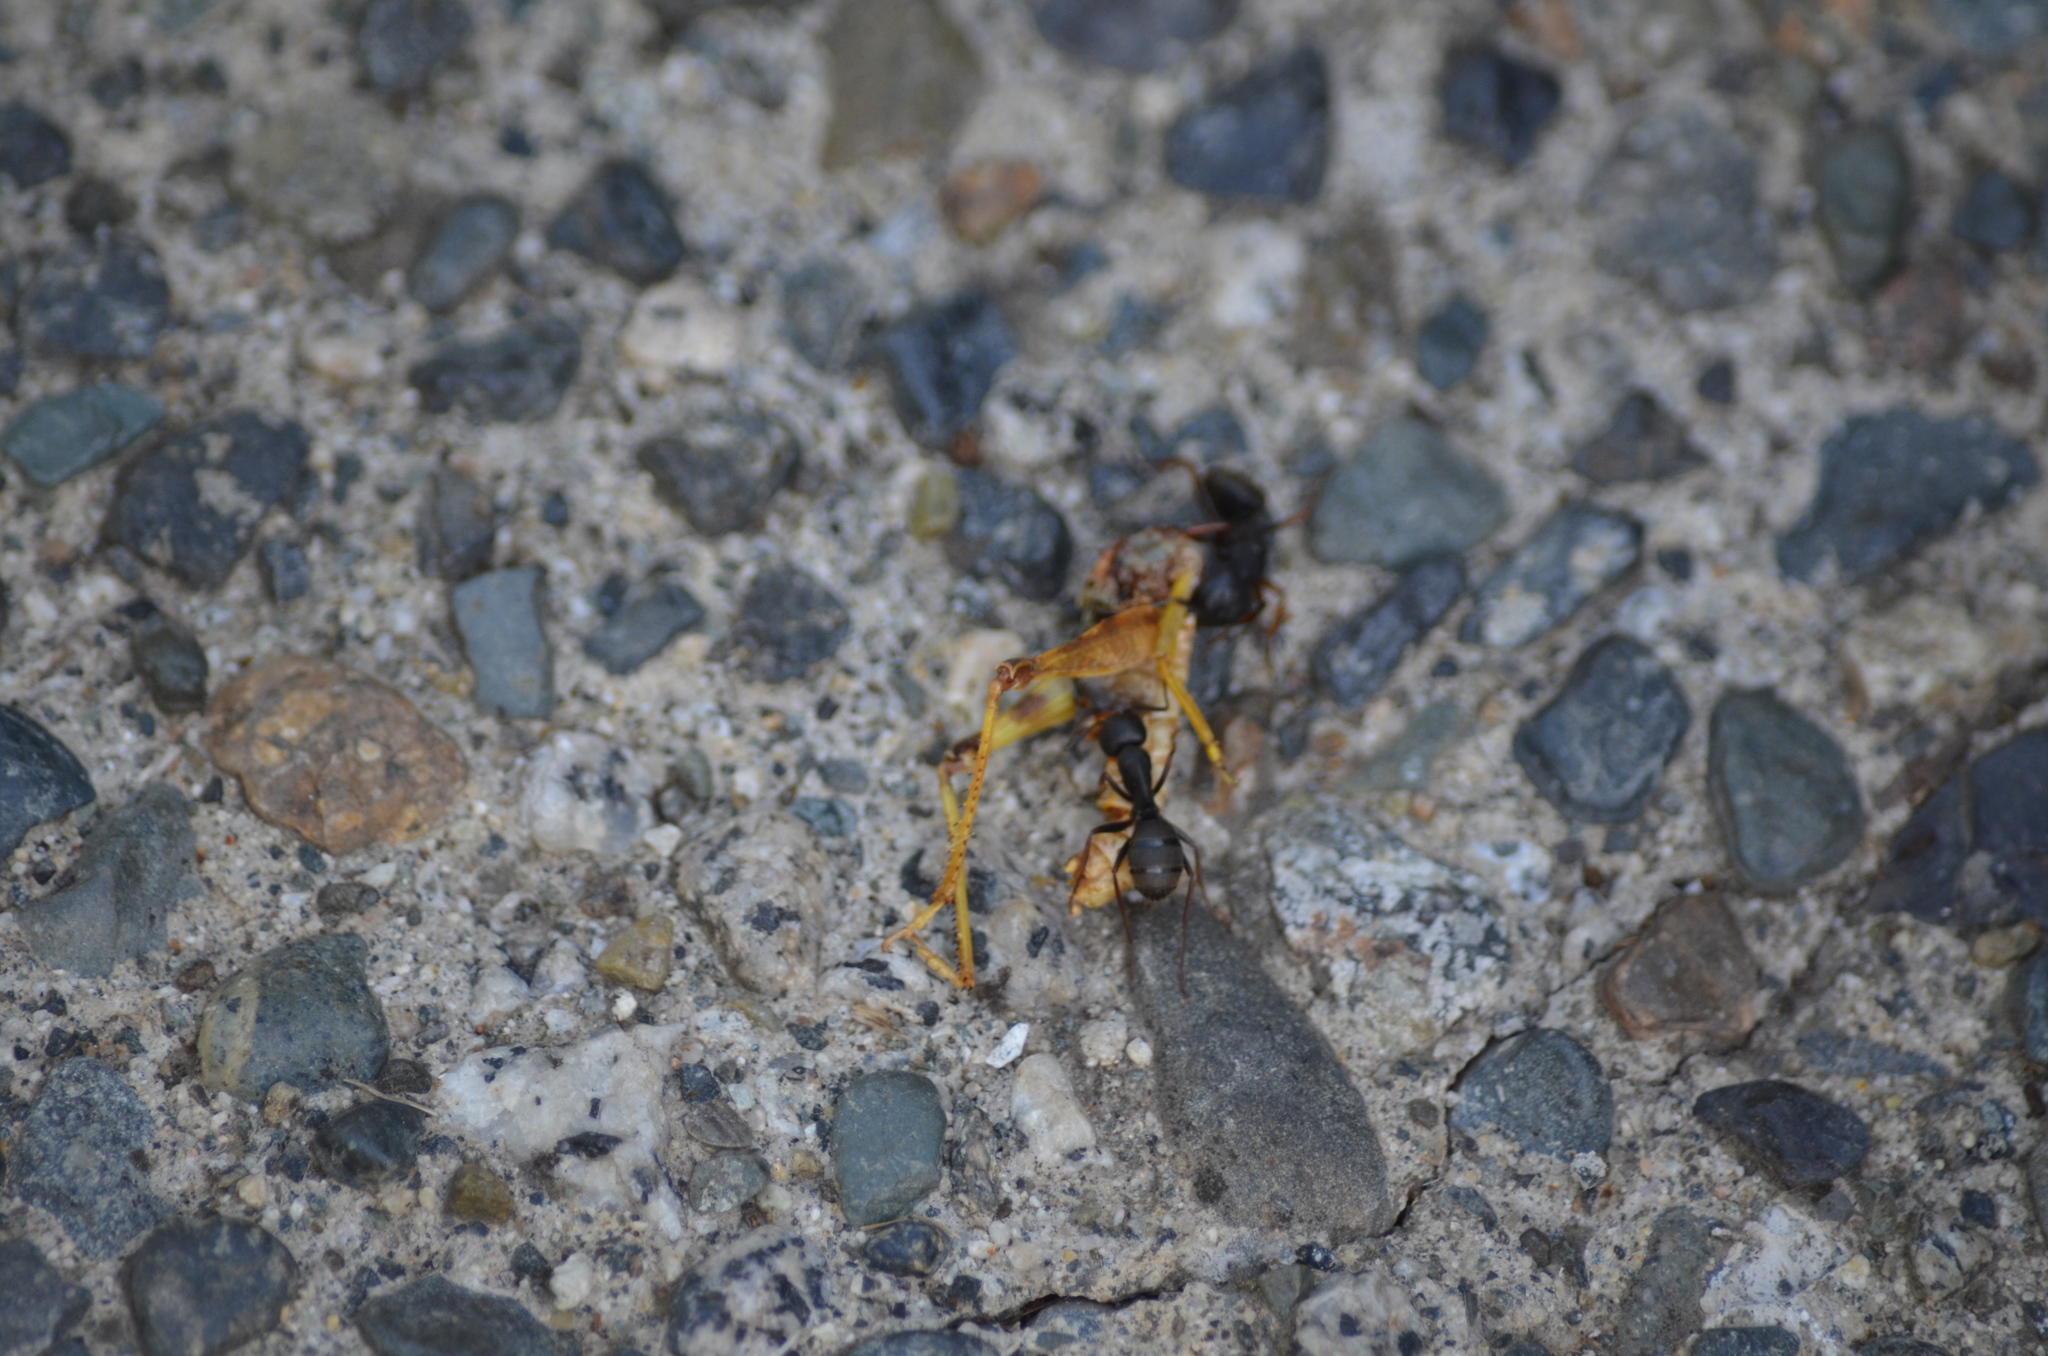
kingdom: Animalia
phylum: Arthropoda
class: Insecta
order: Orthoptera
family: Acrididae
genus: Camnula
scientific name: Camnula pellucida
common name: Clear-winged grasshopper
